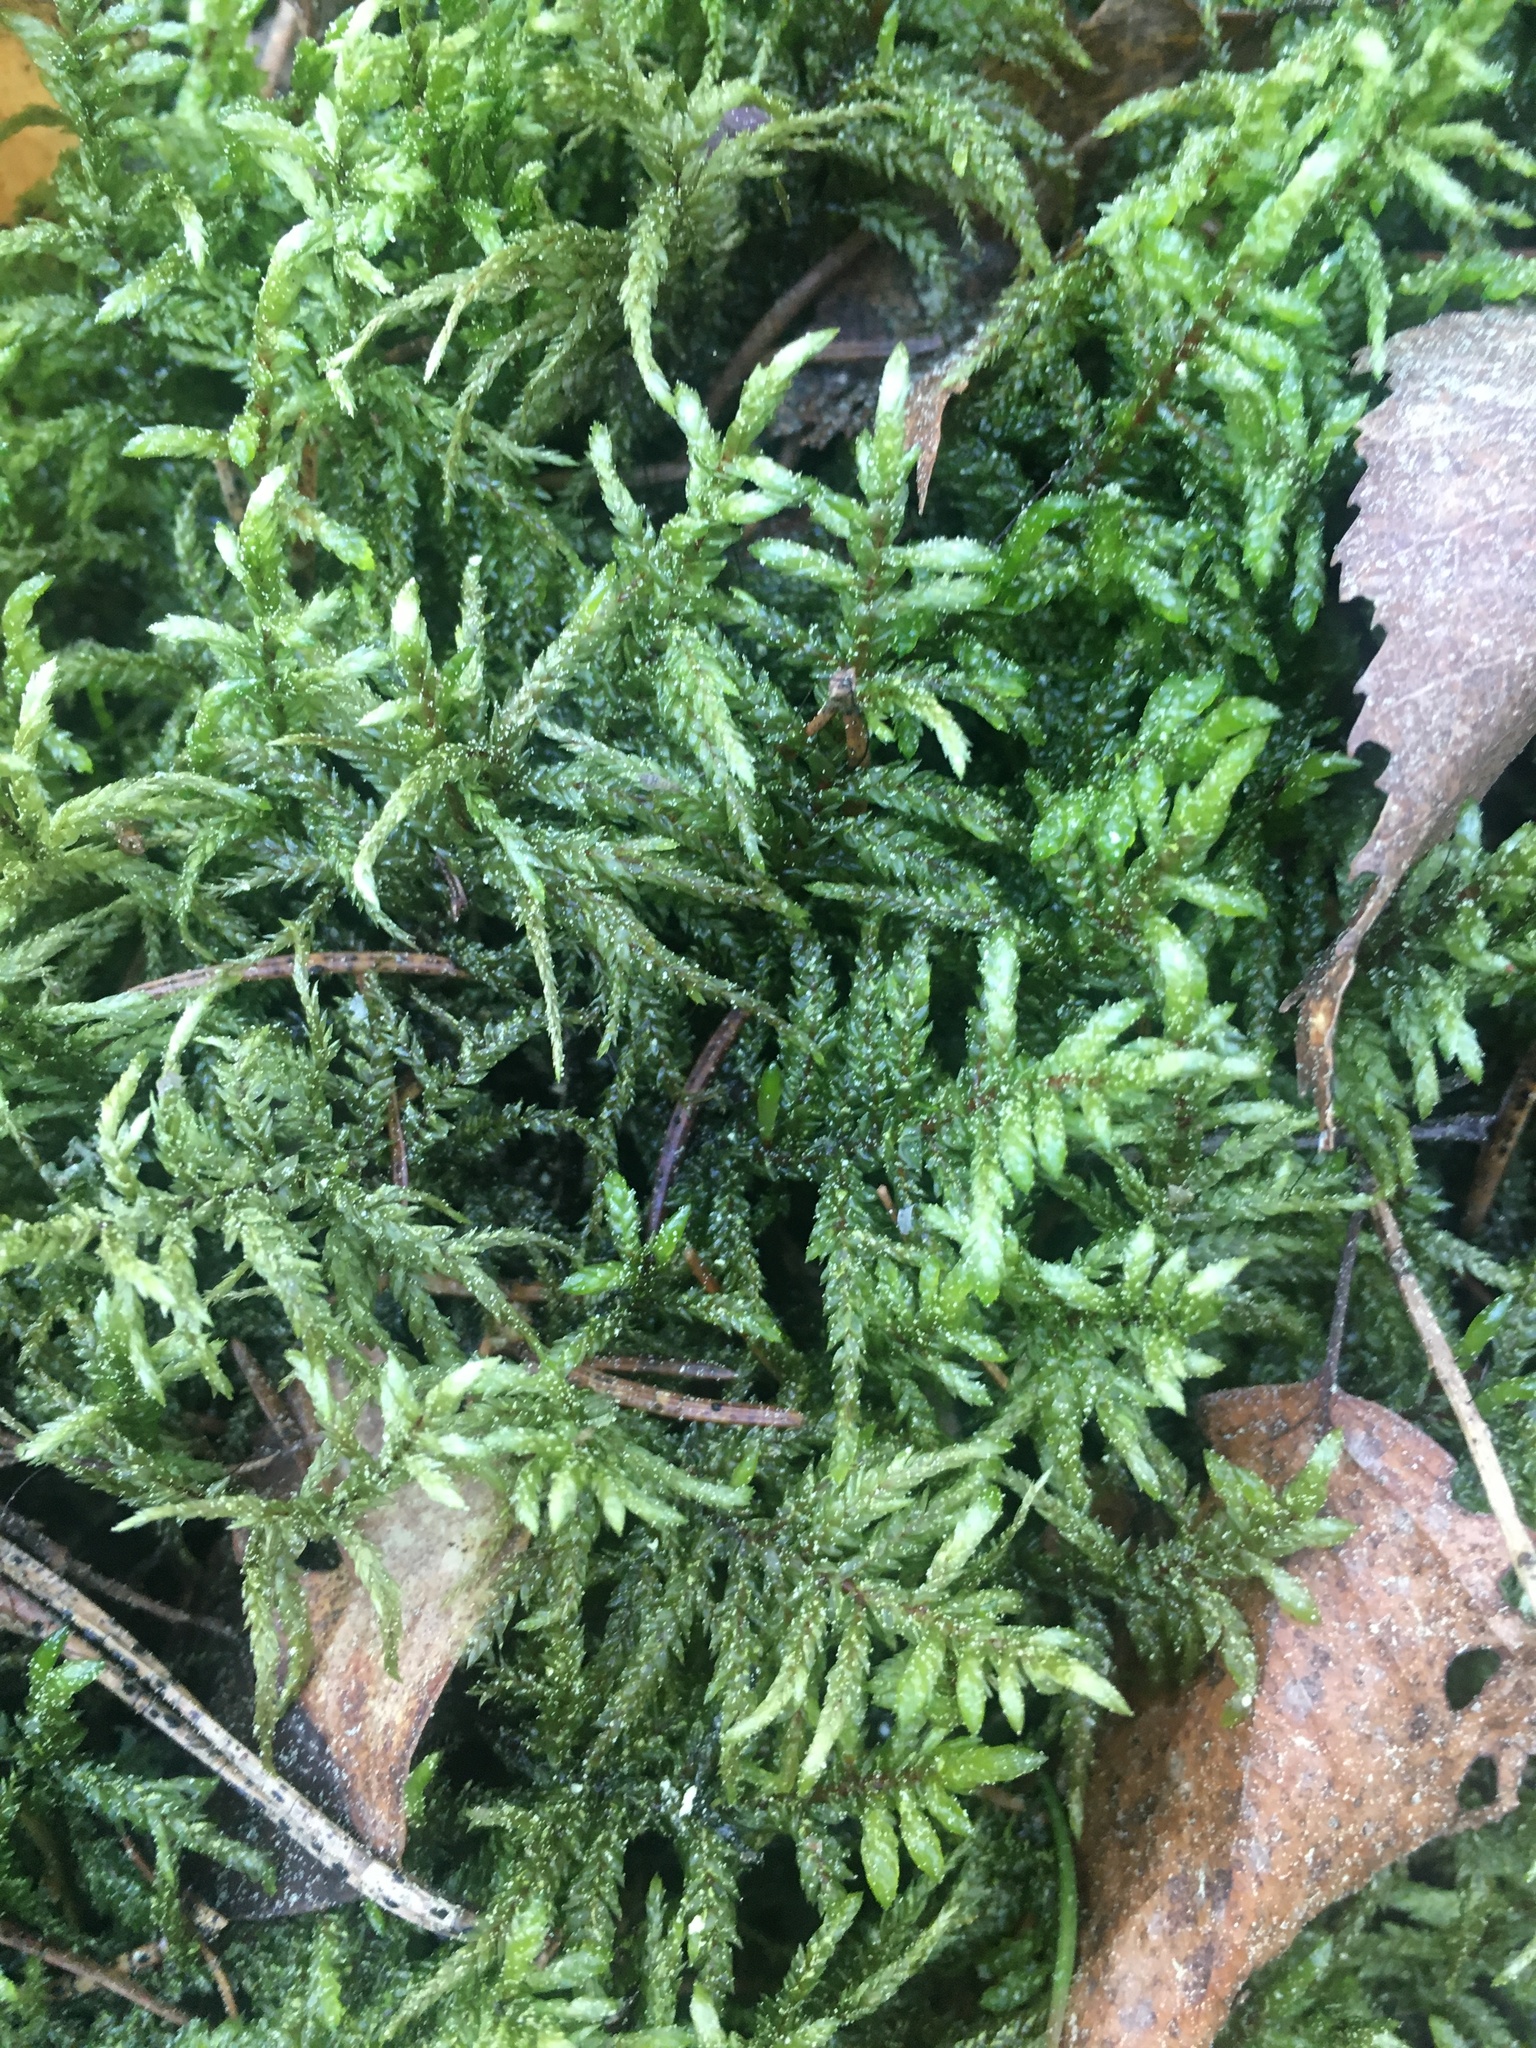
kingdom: Plantae
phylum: Bryophyta
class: Bryopsida
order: Hypnales
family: Hylocomiaceae
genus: Pleurozium
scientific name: Pleurozium schreberi
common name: Red-stemmed feather moss
